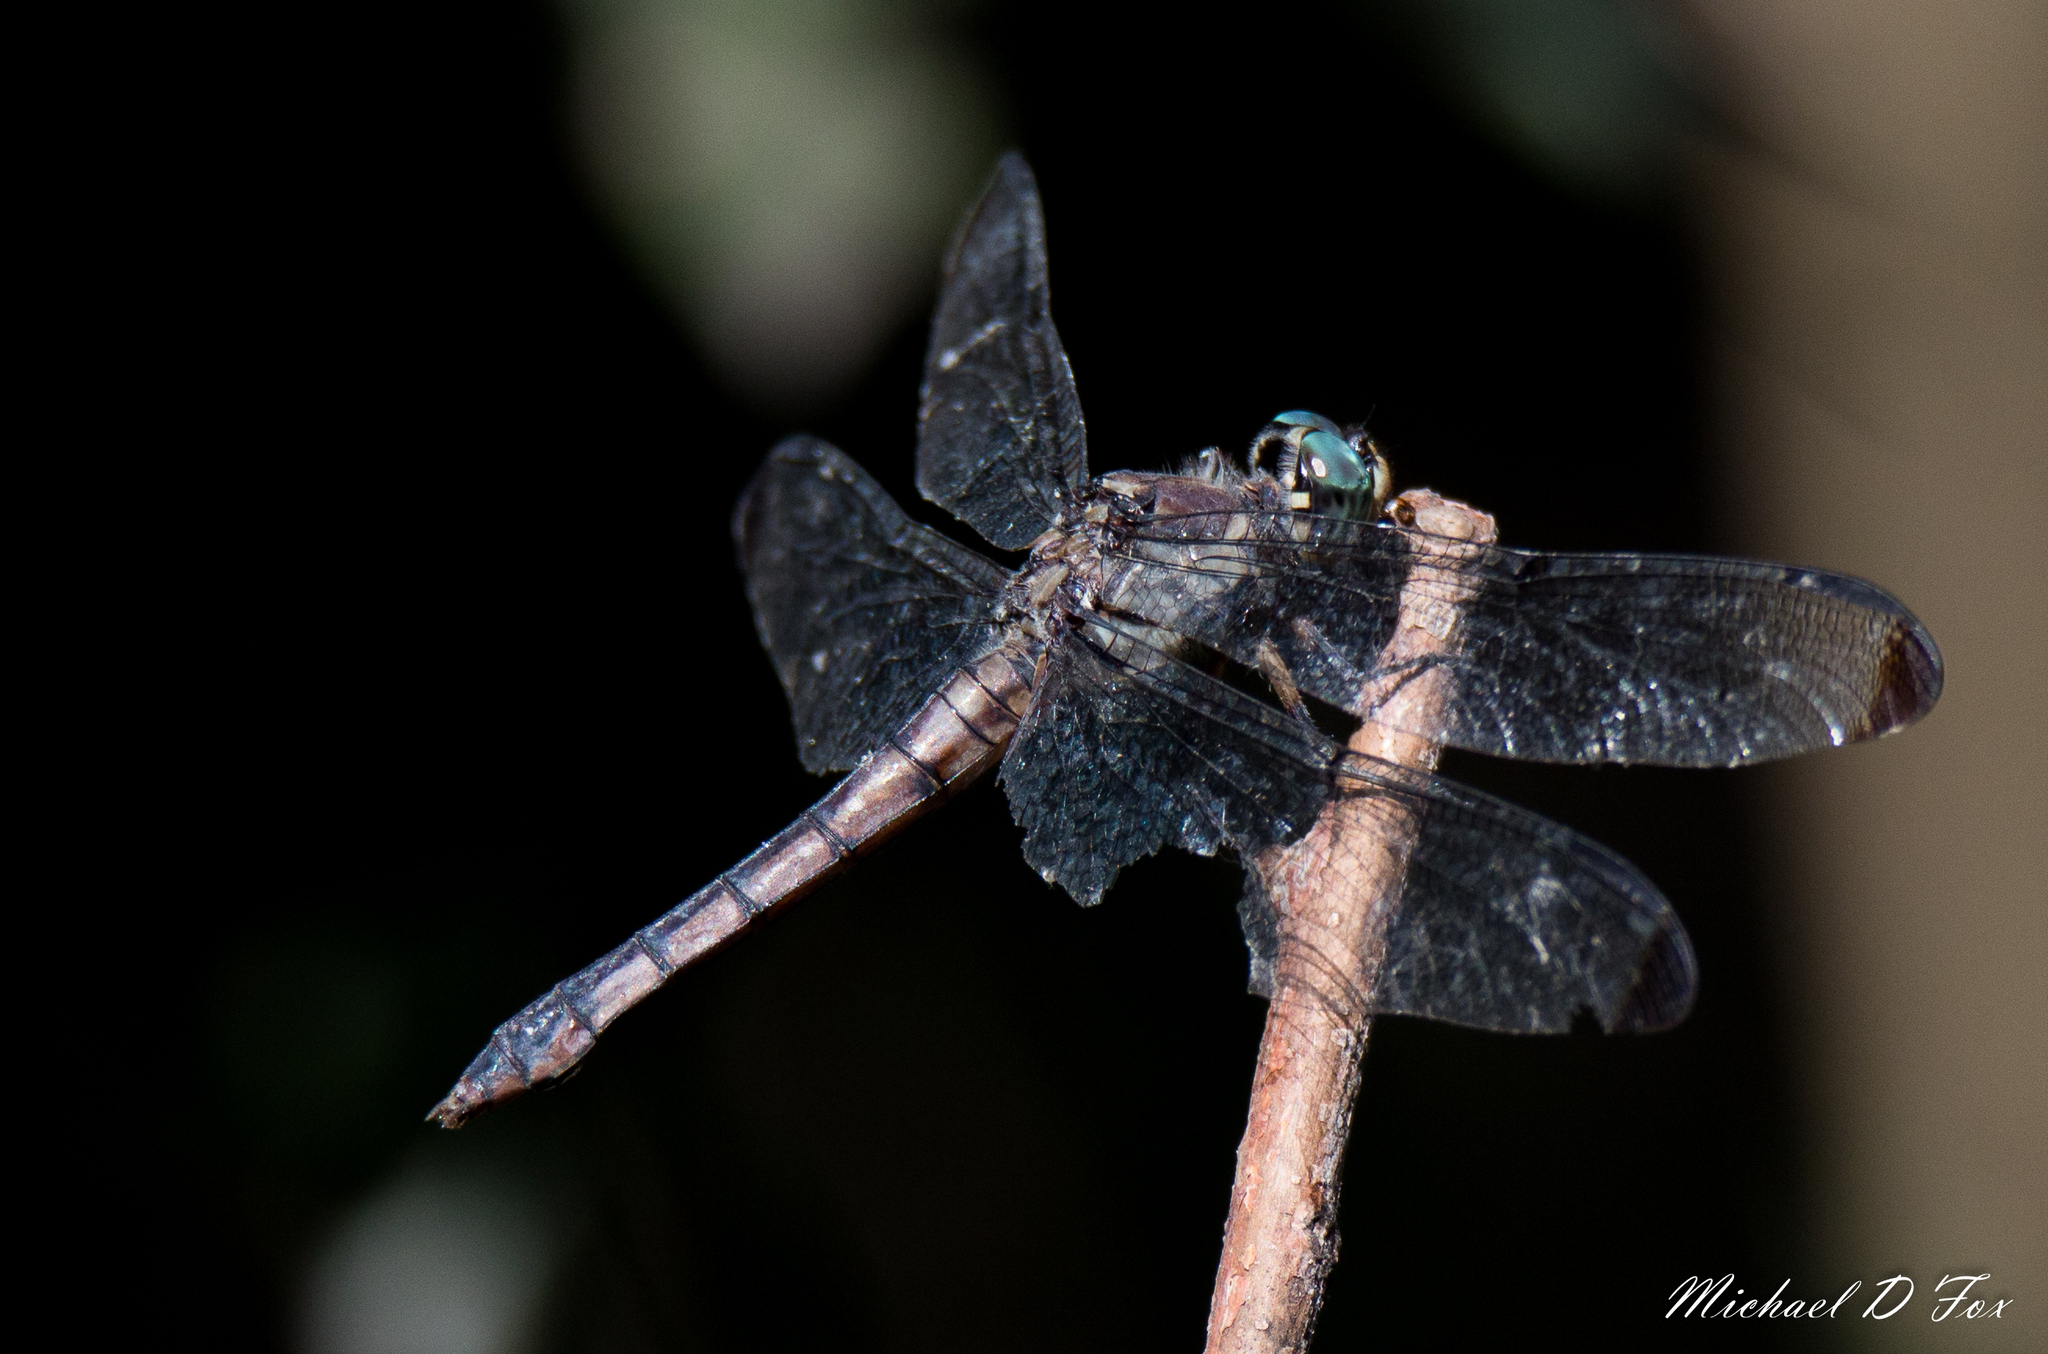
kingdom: Animalia
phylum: Arthropoda
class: Insecta
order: Odonata
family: Libellulidae
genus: Libellula
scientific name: Libellula vibrans
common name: Great blue skimmer
